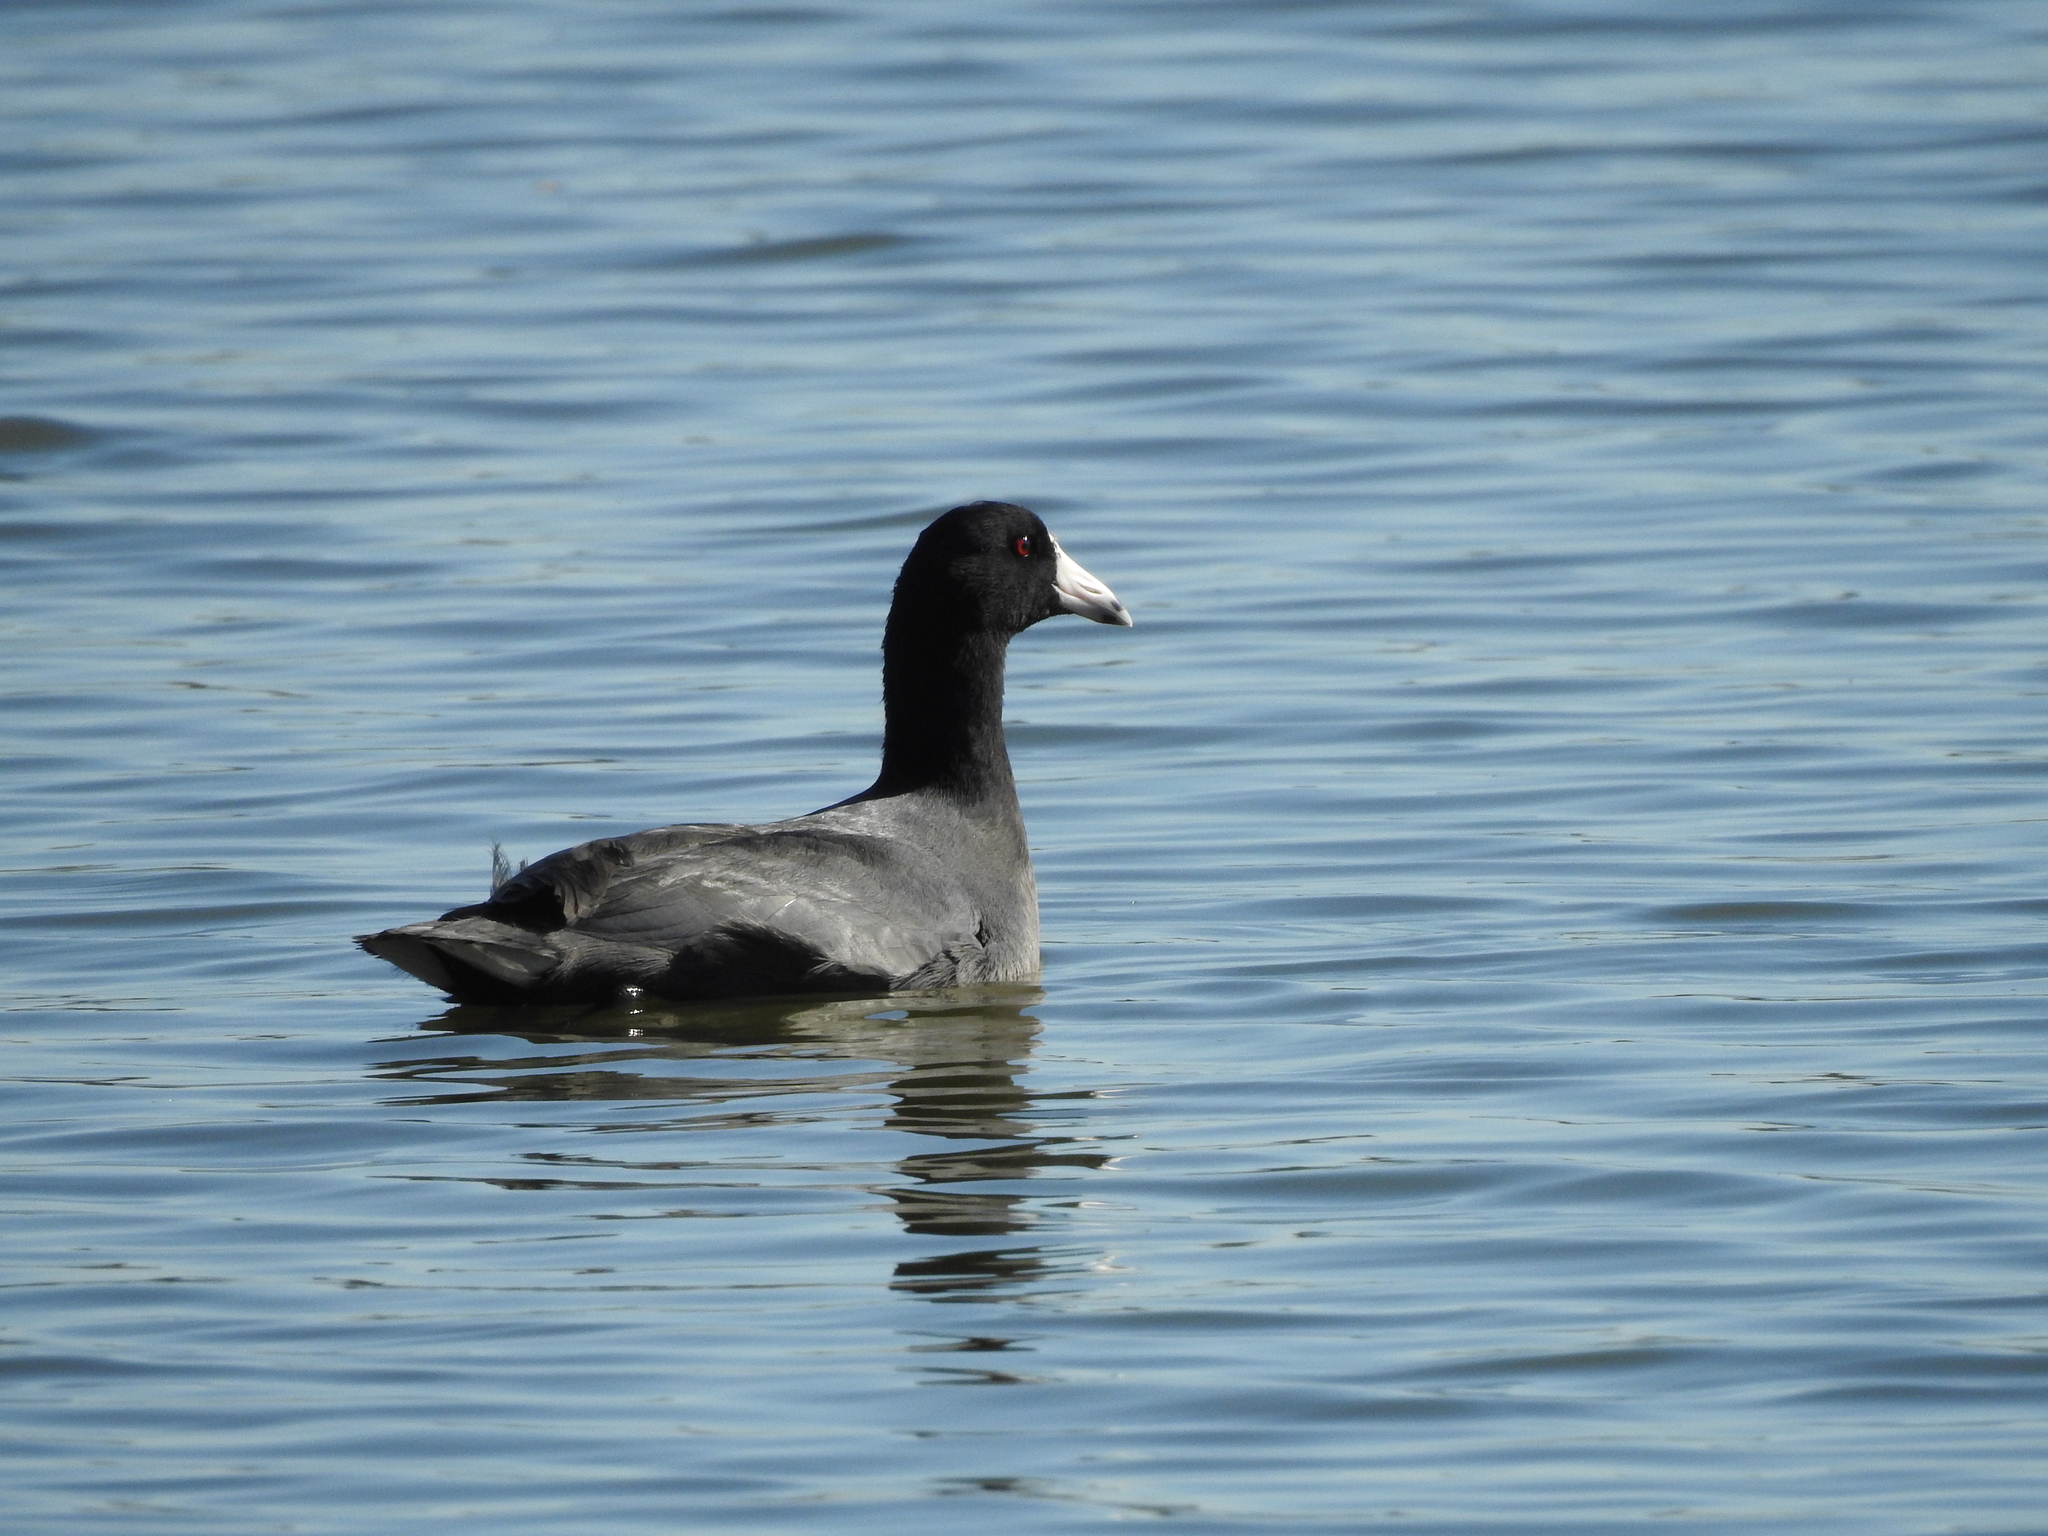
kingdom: Animalia
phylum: Chordata
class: Aves
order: Gruiformes
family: Rallidae
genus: Fulica
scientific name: Fulica americana
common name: American coot
